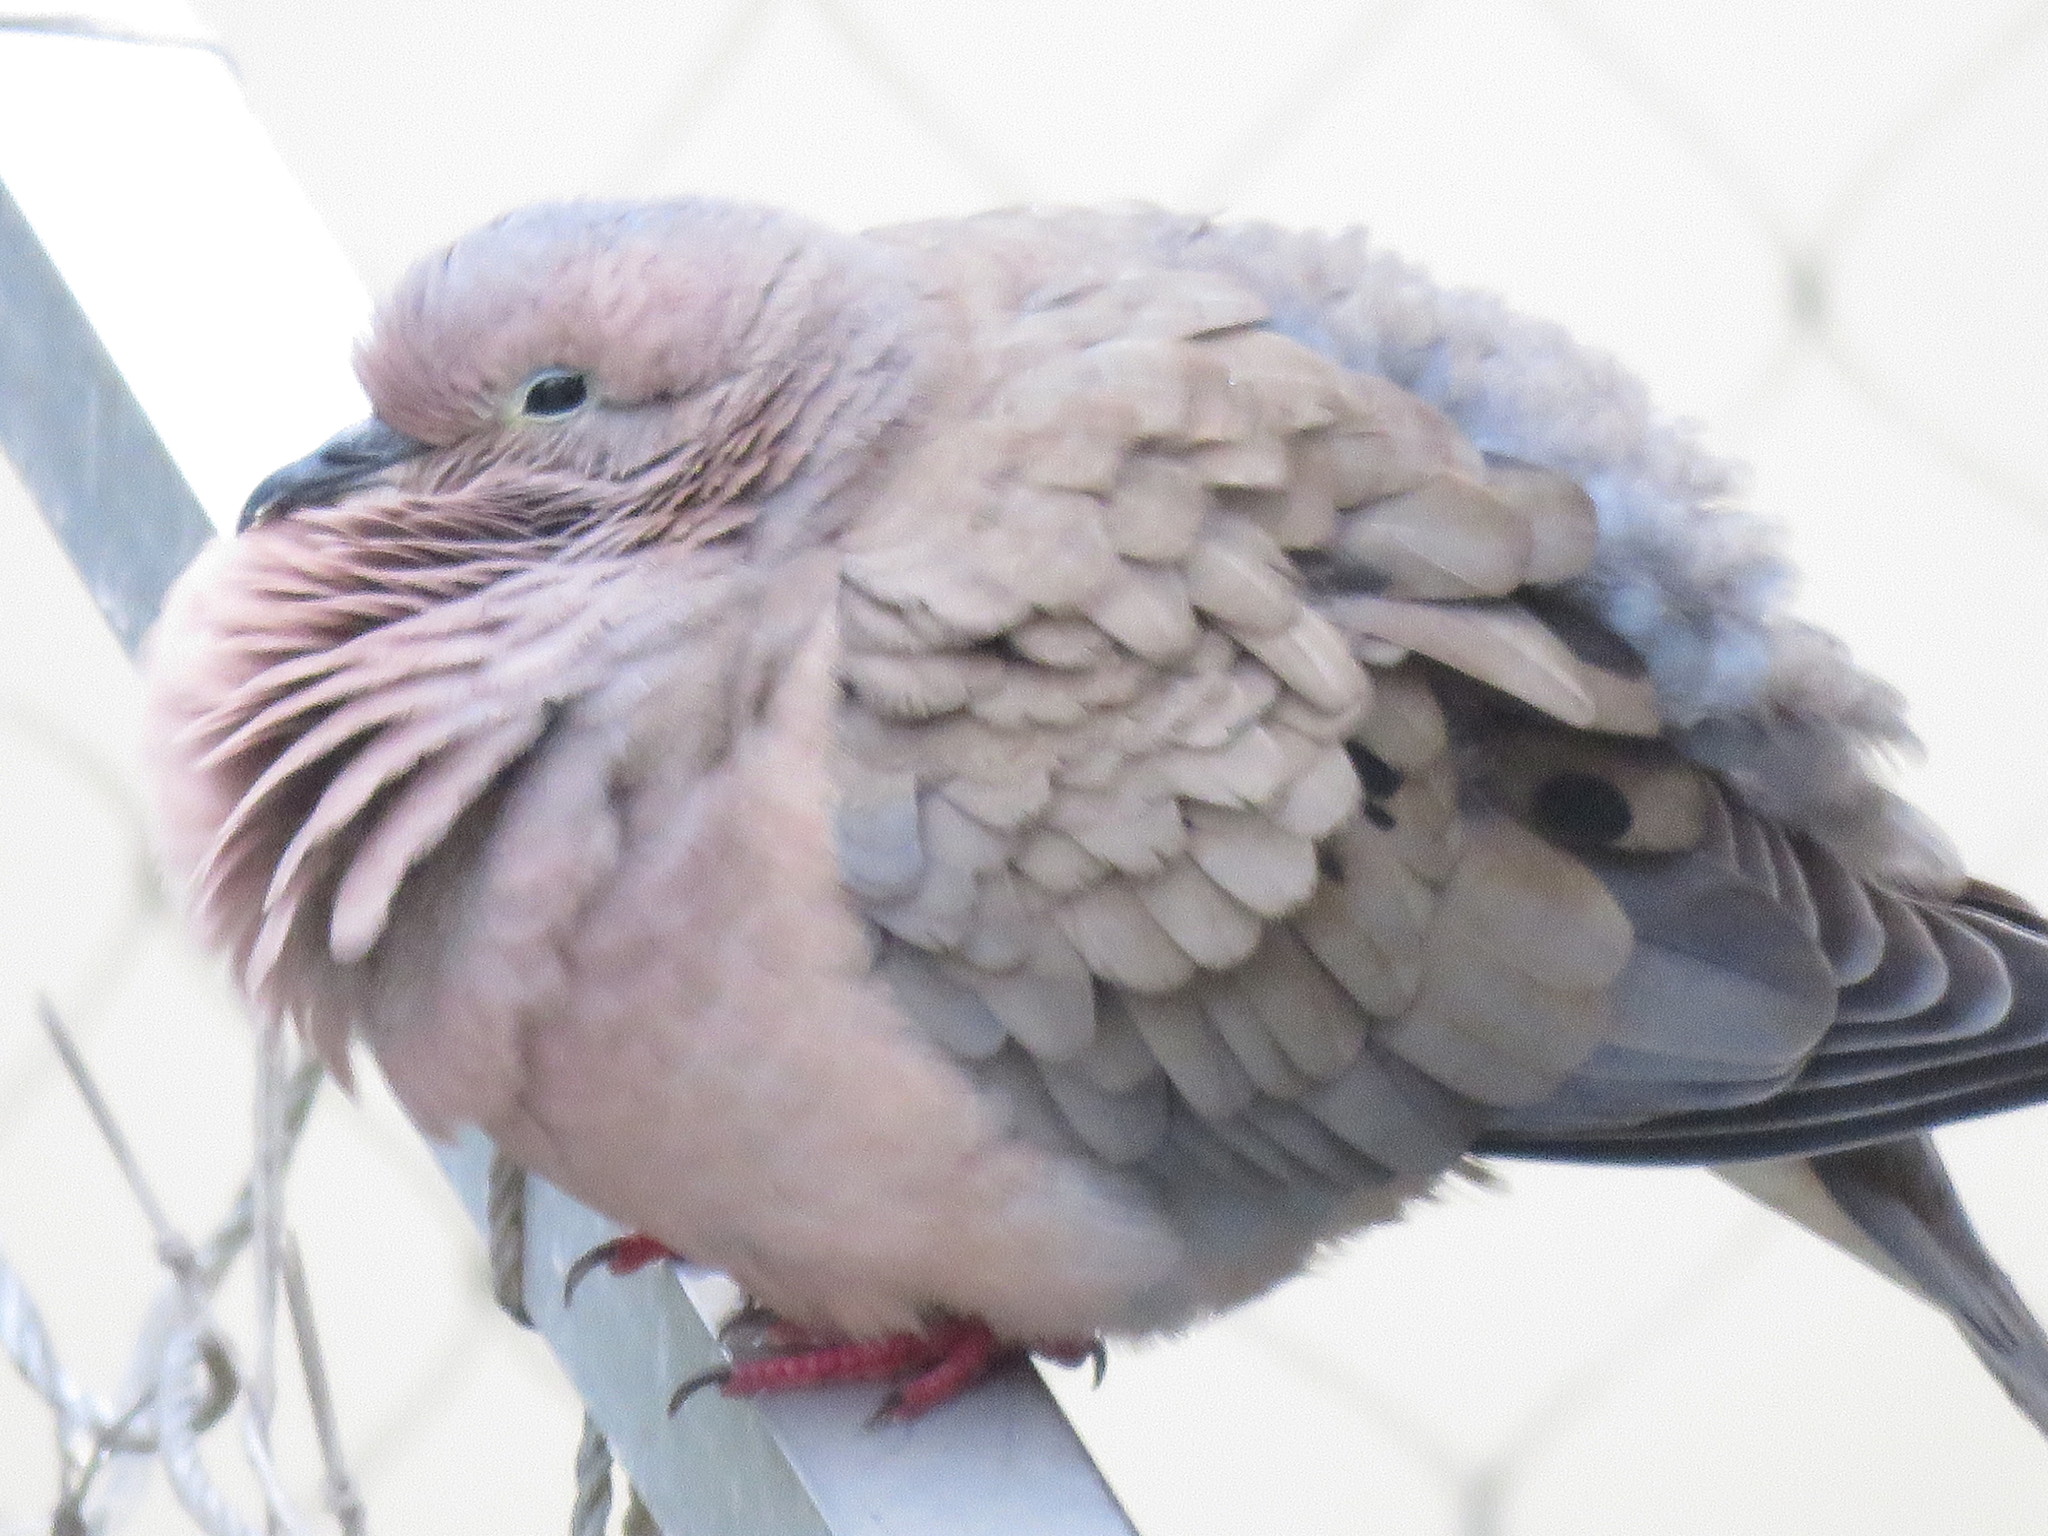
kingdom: Animalia
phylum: Chordata
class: Aves
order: Columbiformes
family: Columbidae
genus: Zenaida
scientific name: Zenaida auriculata
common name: Eared dove
